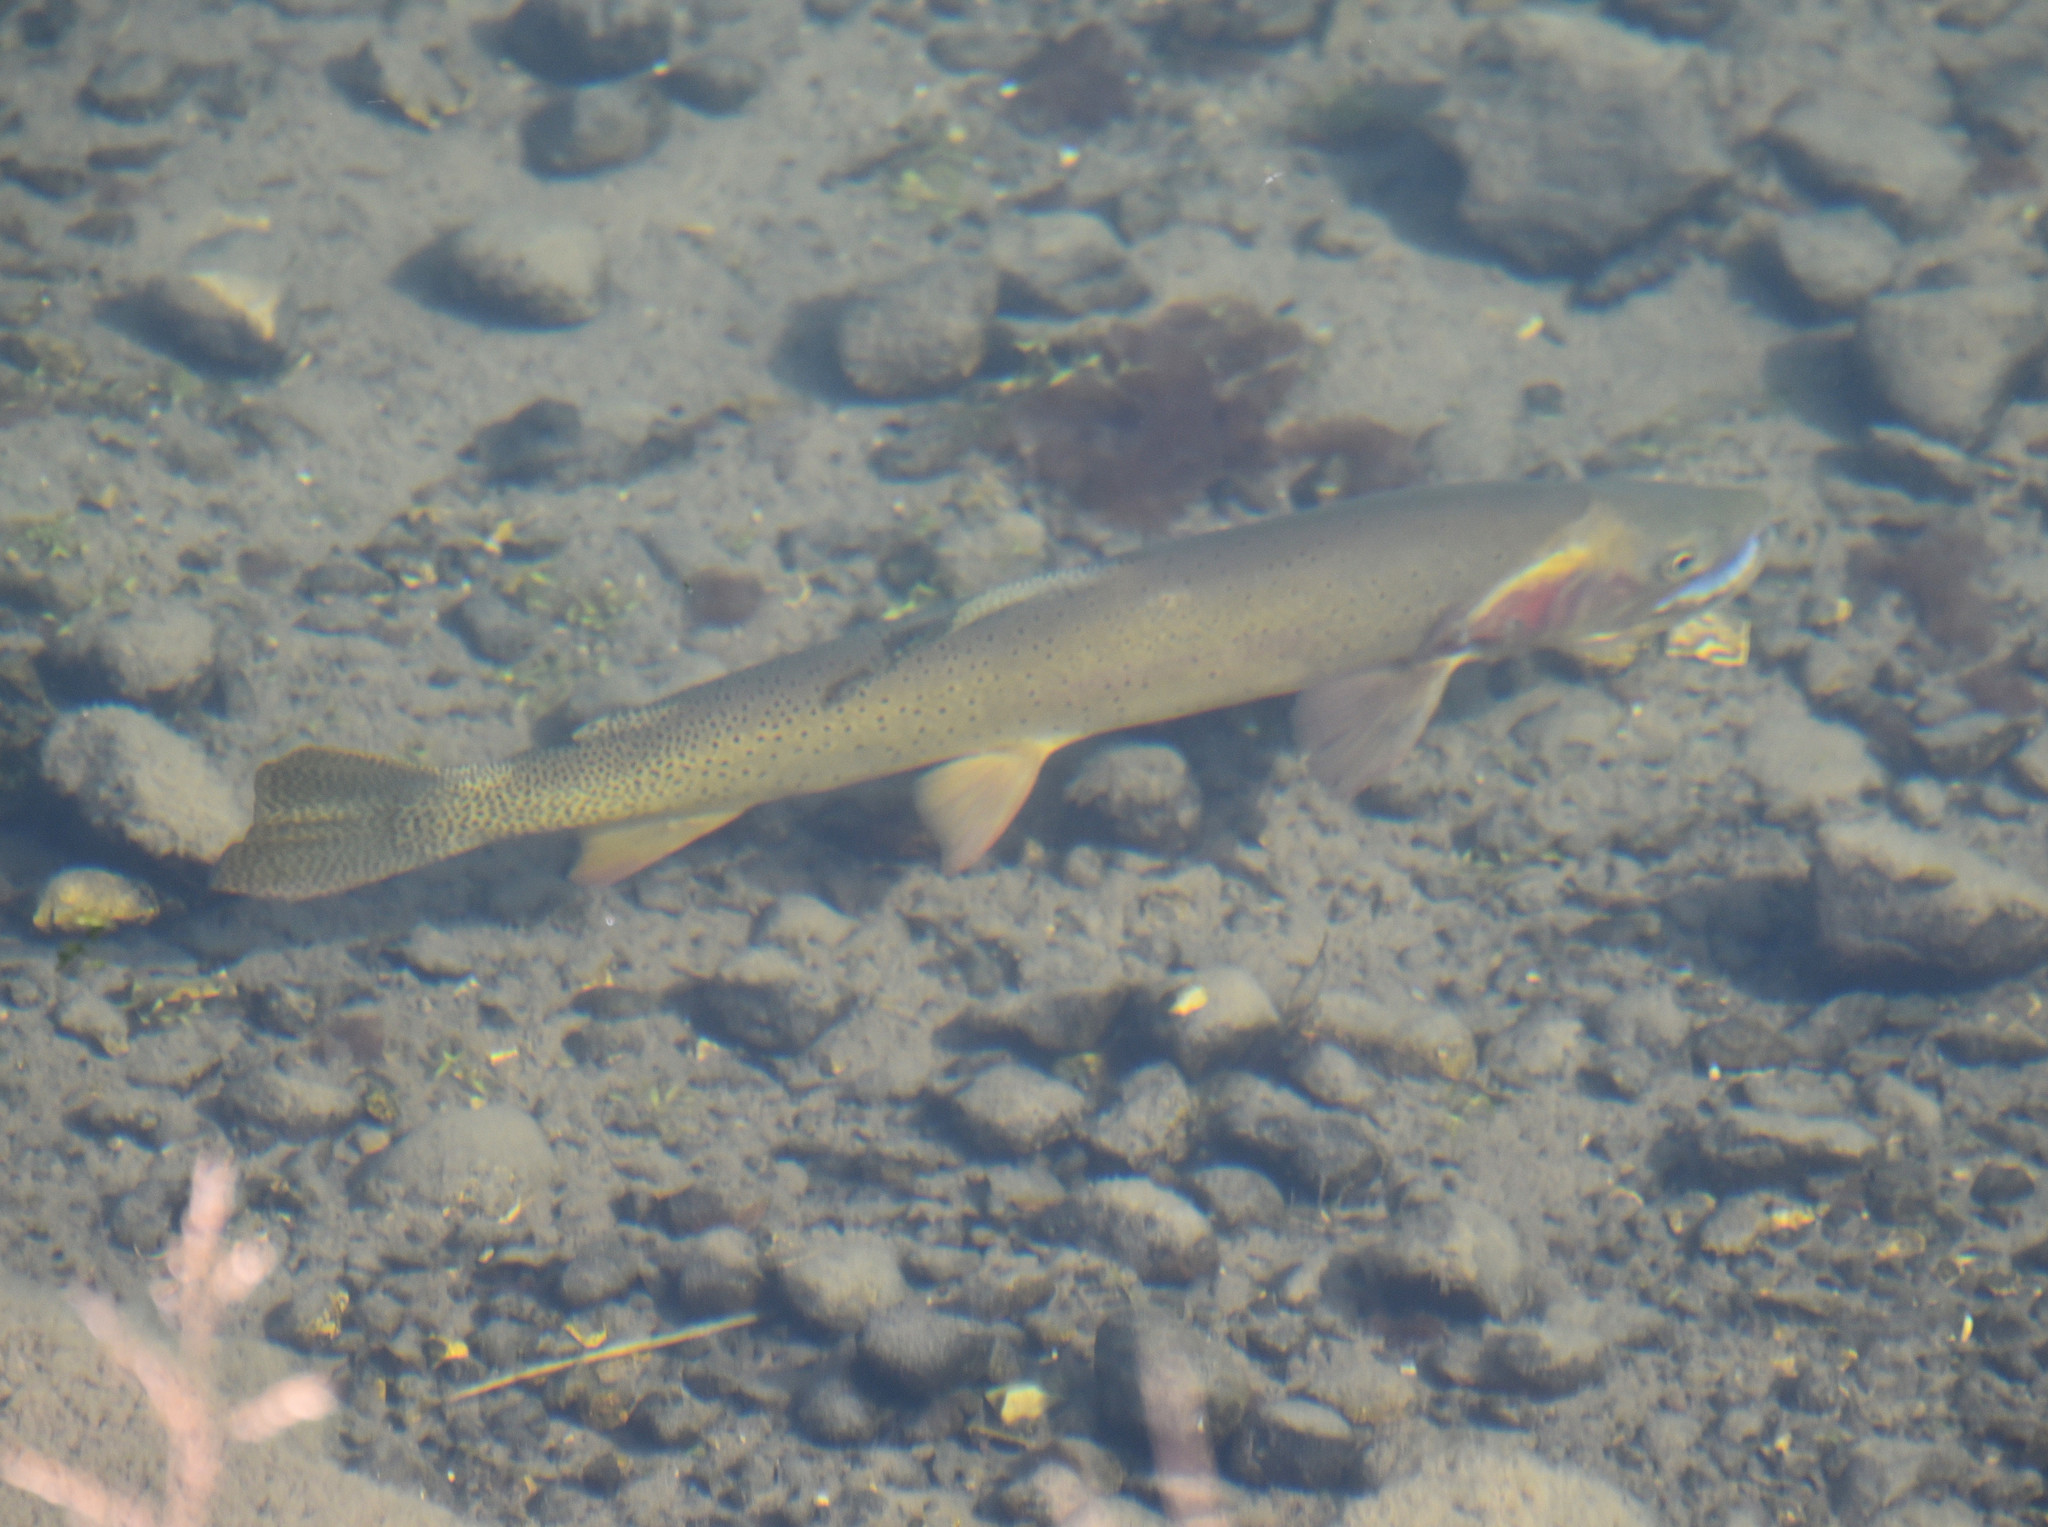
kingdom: Animalia
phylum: Chordata
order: Salmoniformes
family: Salmonidae
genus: Oncorhynchus
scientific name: Oncorhynchus virginalis
